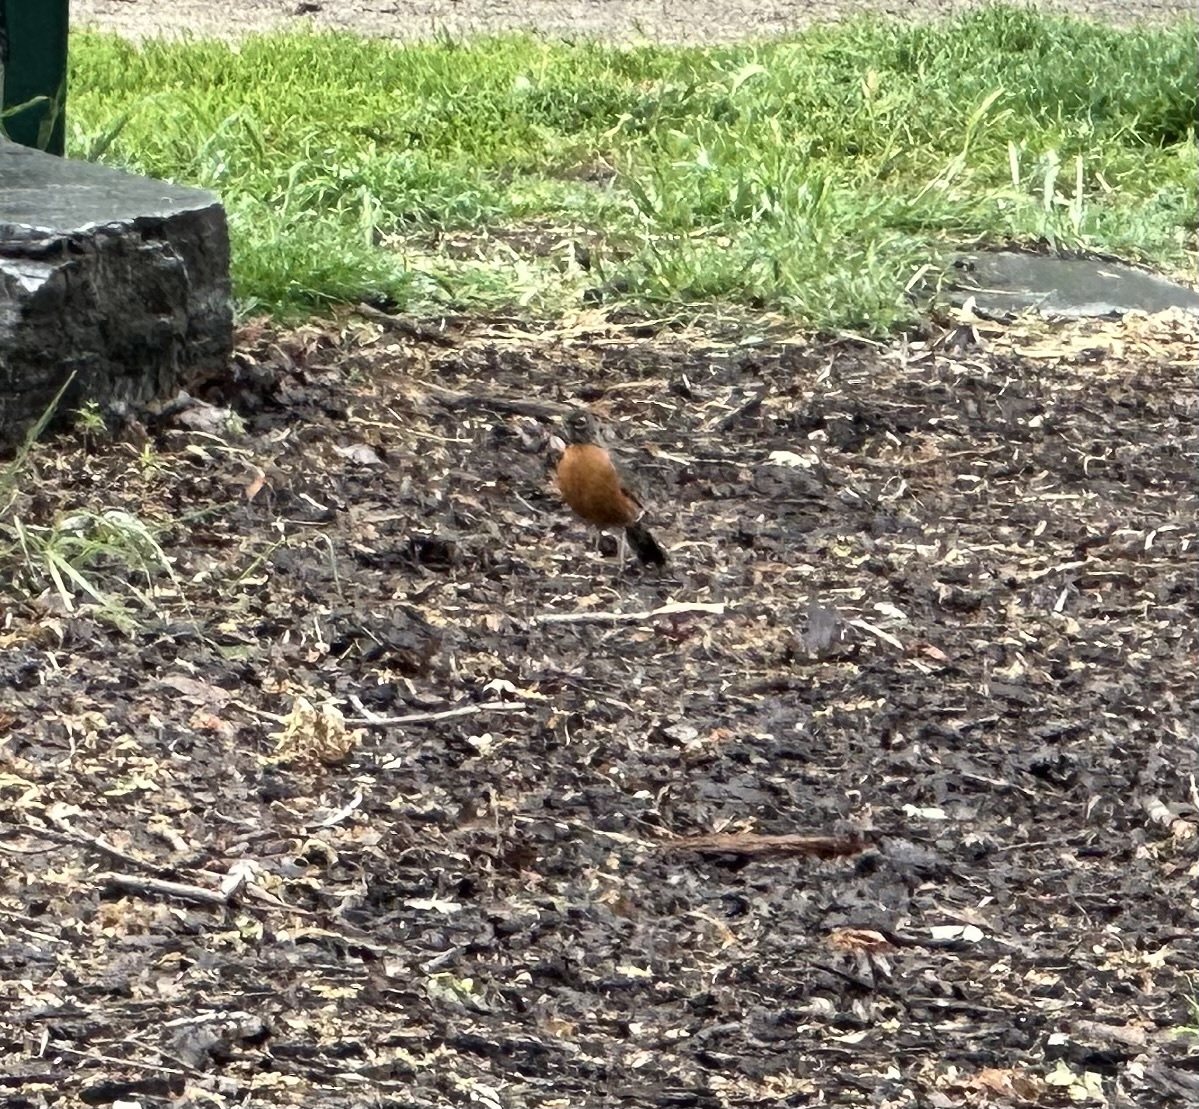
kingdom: Animalia
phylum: Chordata
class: Aves
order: Passeriformes
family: Turdidae
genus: Turdus
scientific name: Turdus migratorius
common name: American robin
